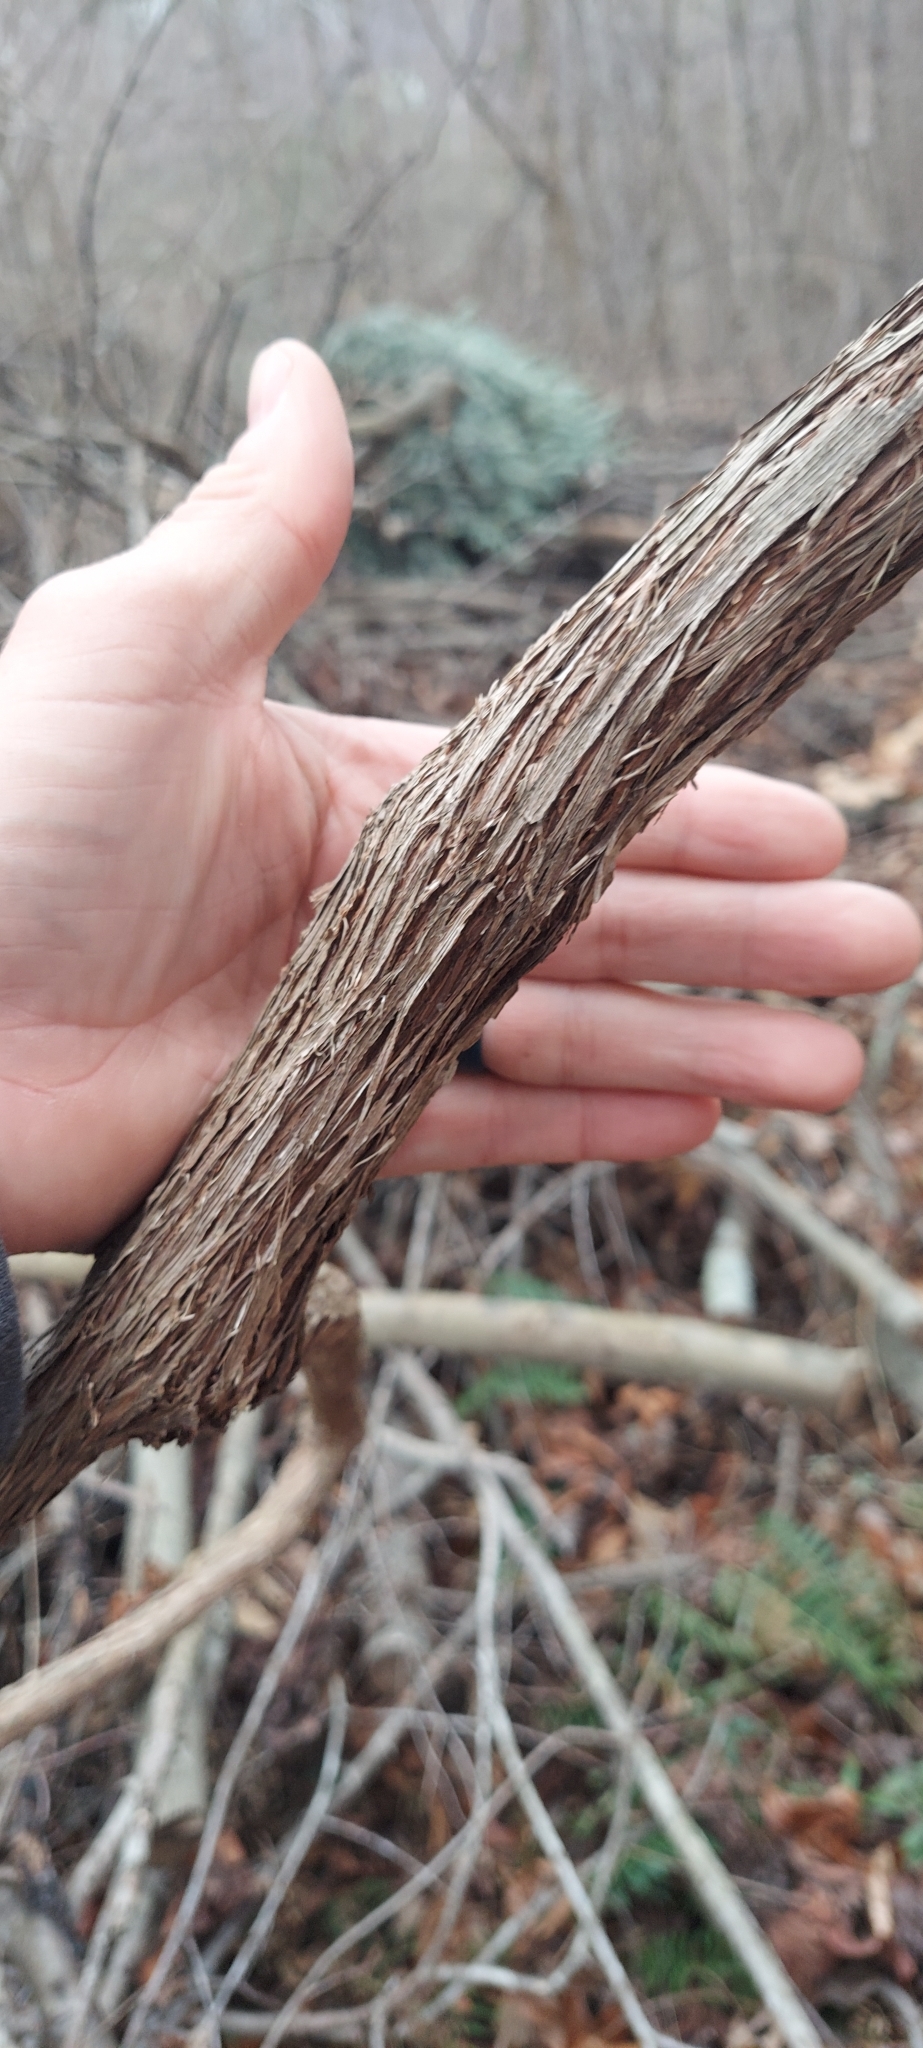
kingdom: Plantae
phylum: Tracheophyta
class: Magnoliopsida
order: Celastrales
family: Celastraceae
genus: Celastrus
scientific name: Celastrus orbiculatus
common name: Oriental bittersweet
